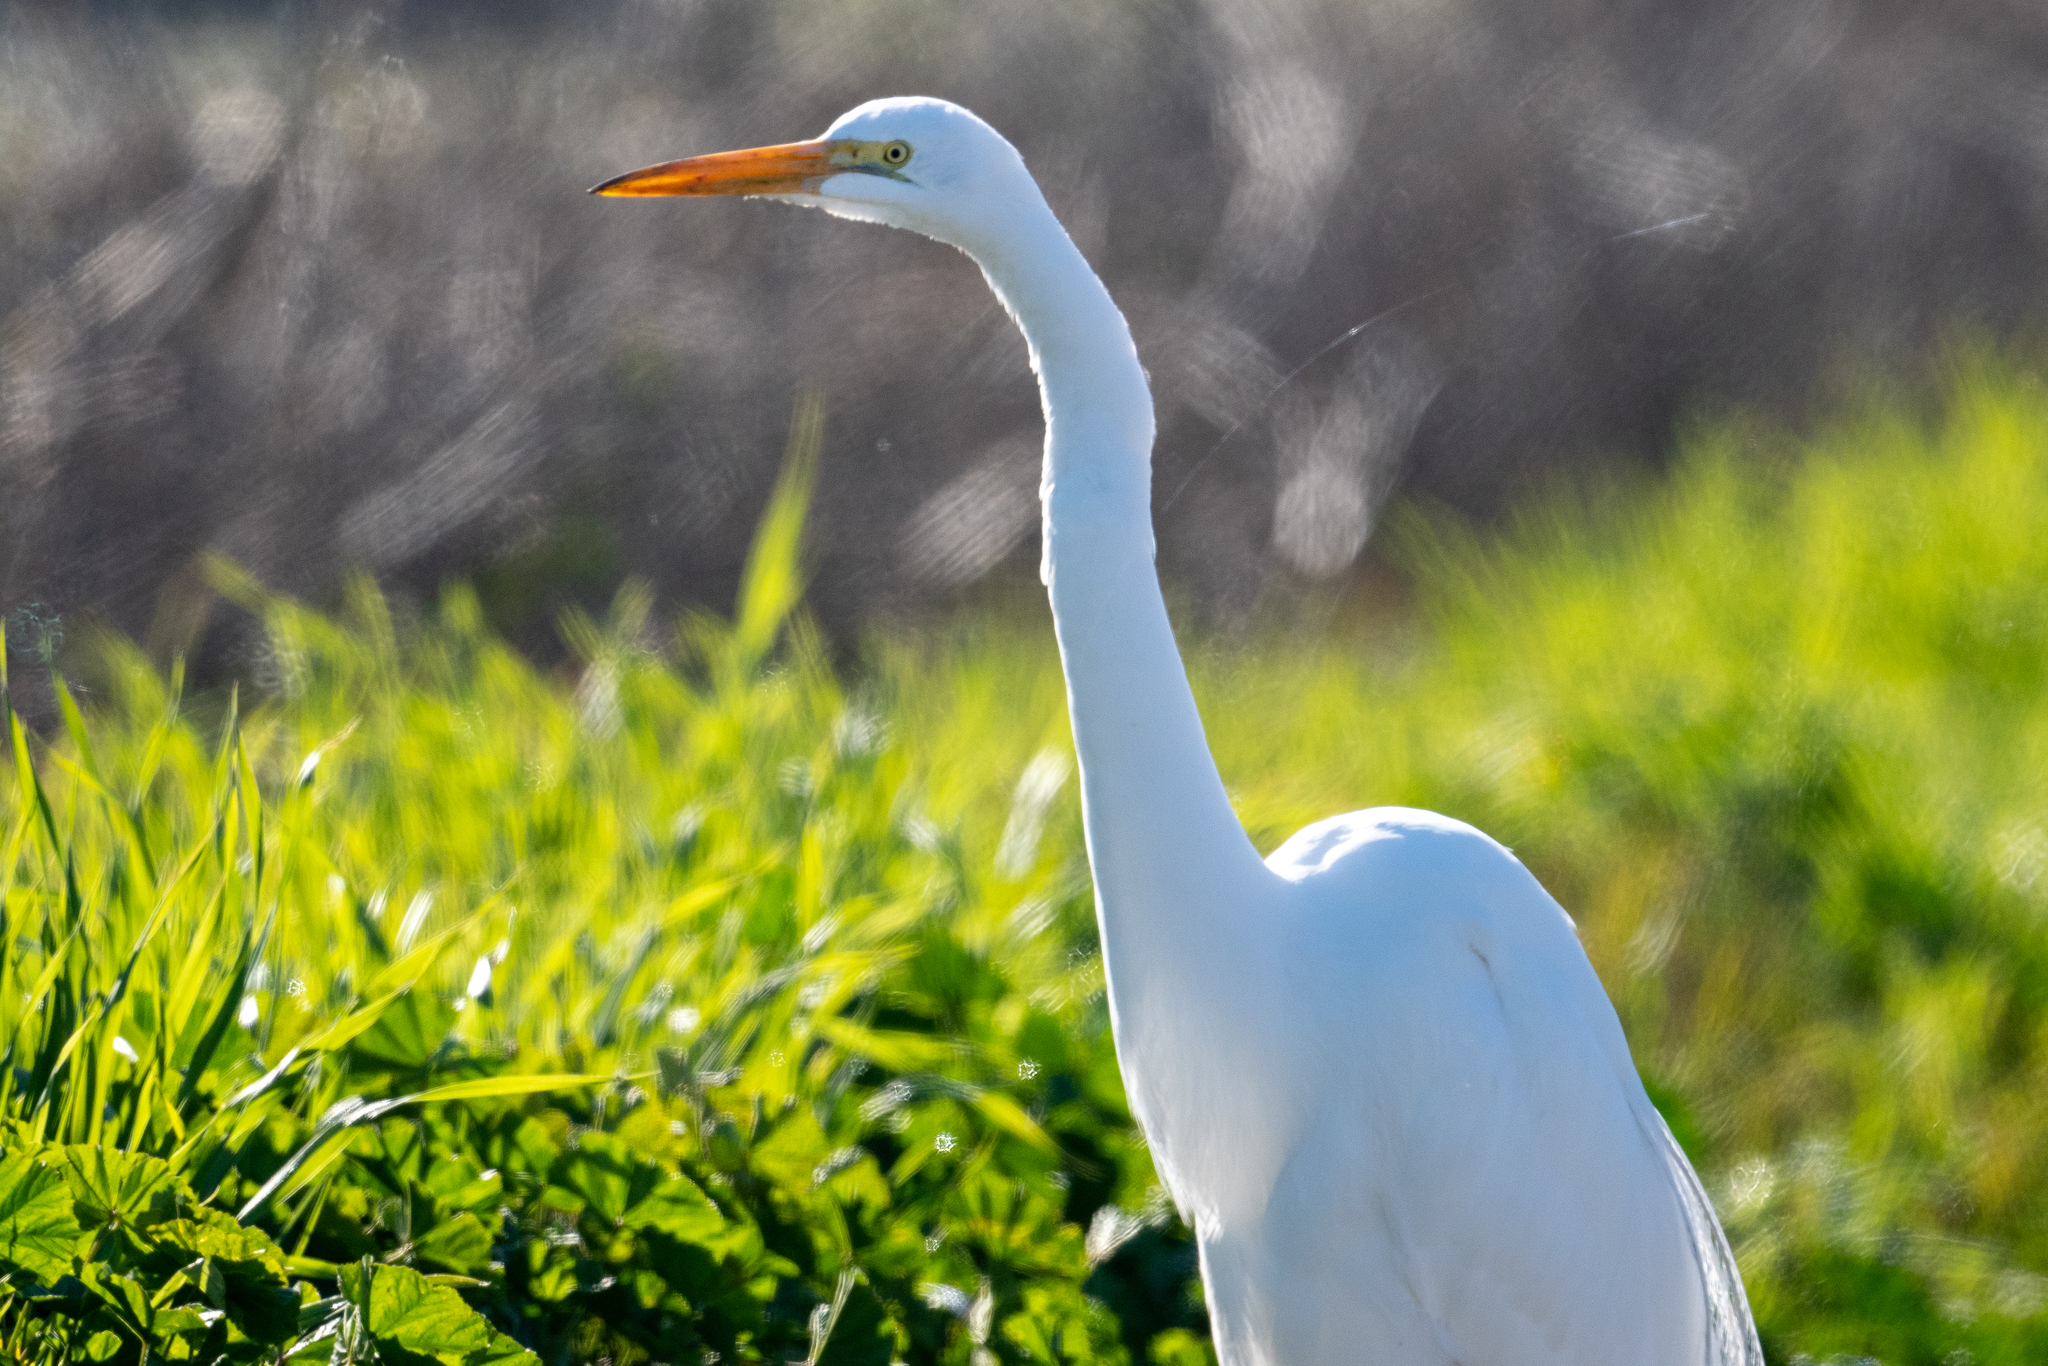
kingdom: Animalia
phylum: Chordata
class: Aves
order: Pelecaniformes
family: Ardeidae
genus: Ardea
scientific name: Ardea alba
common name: Great egret
